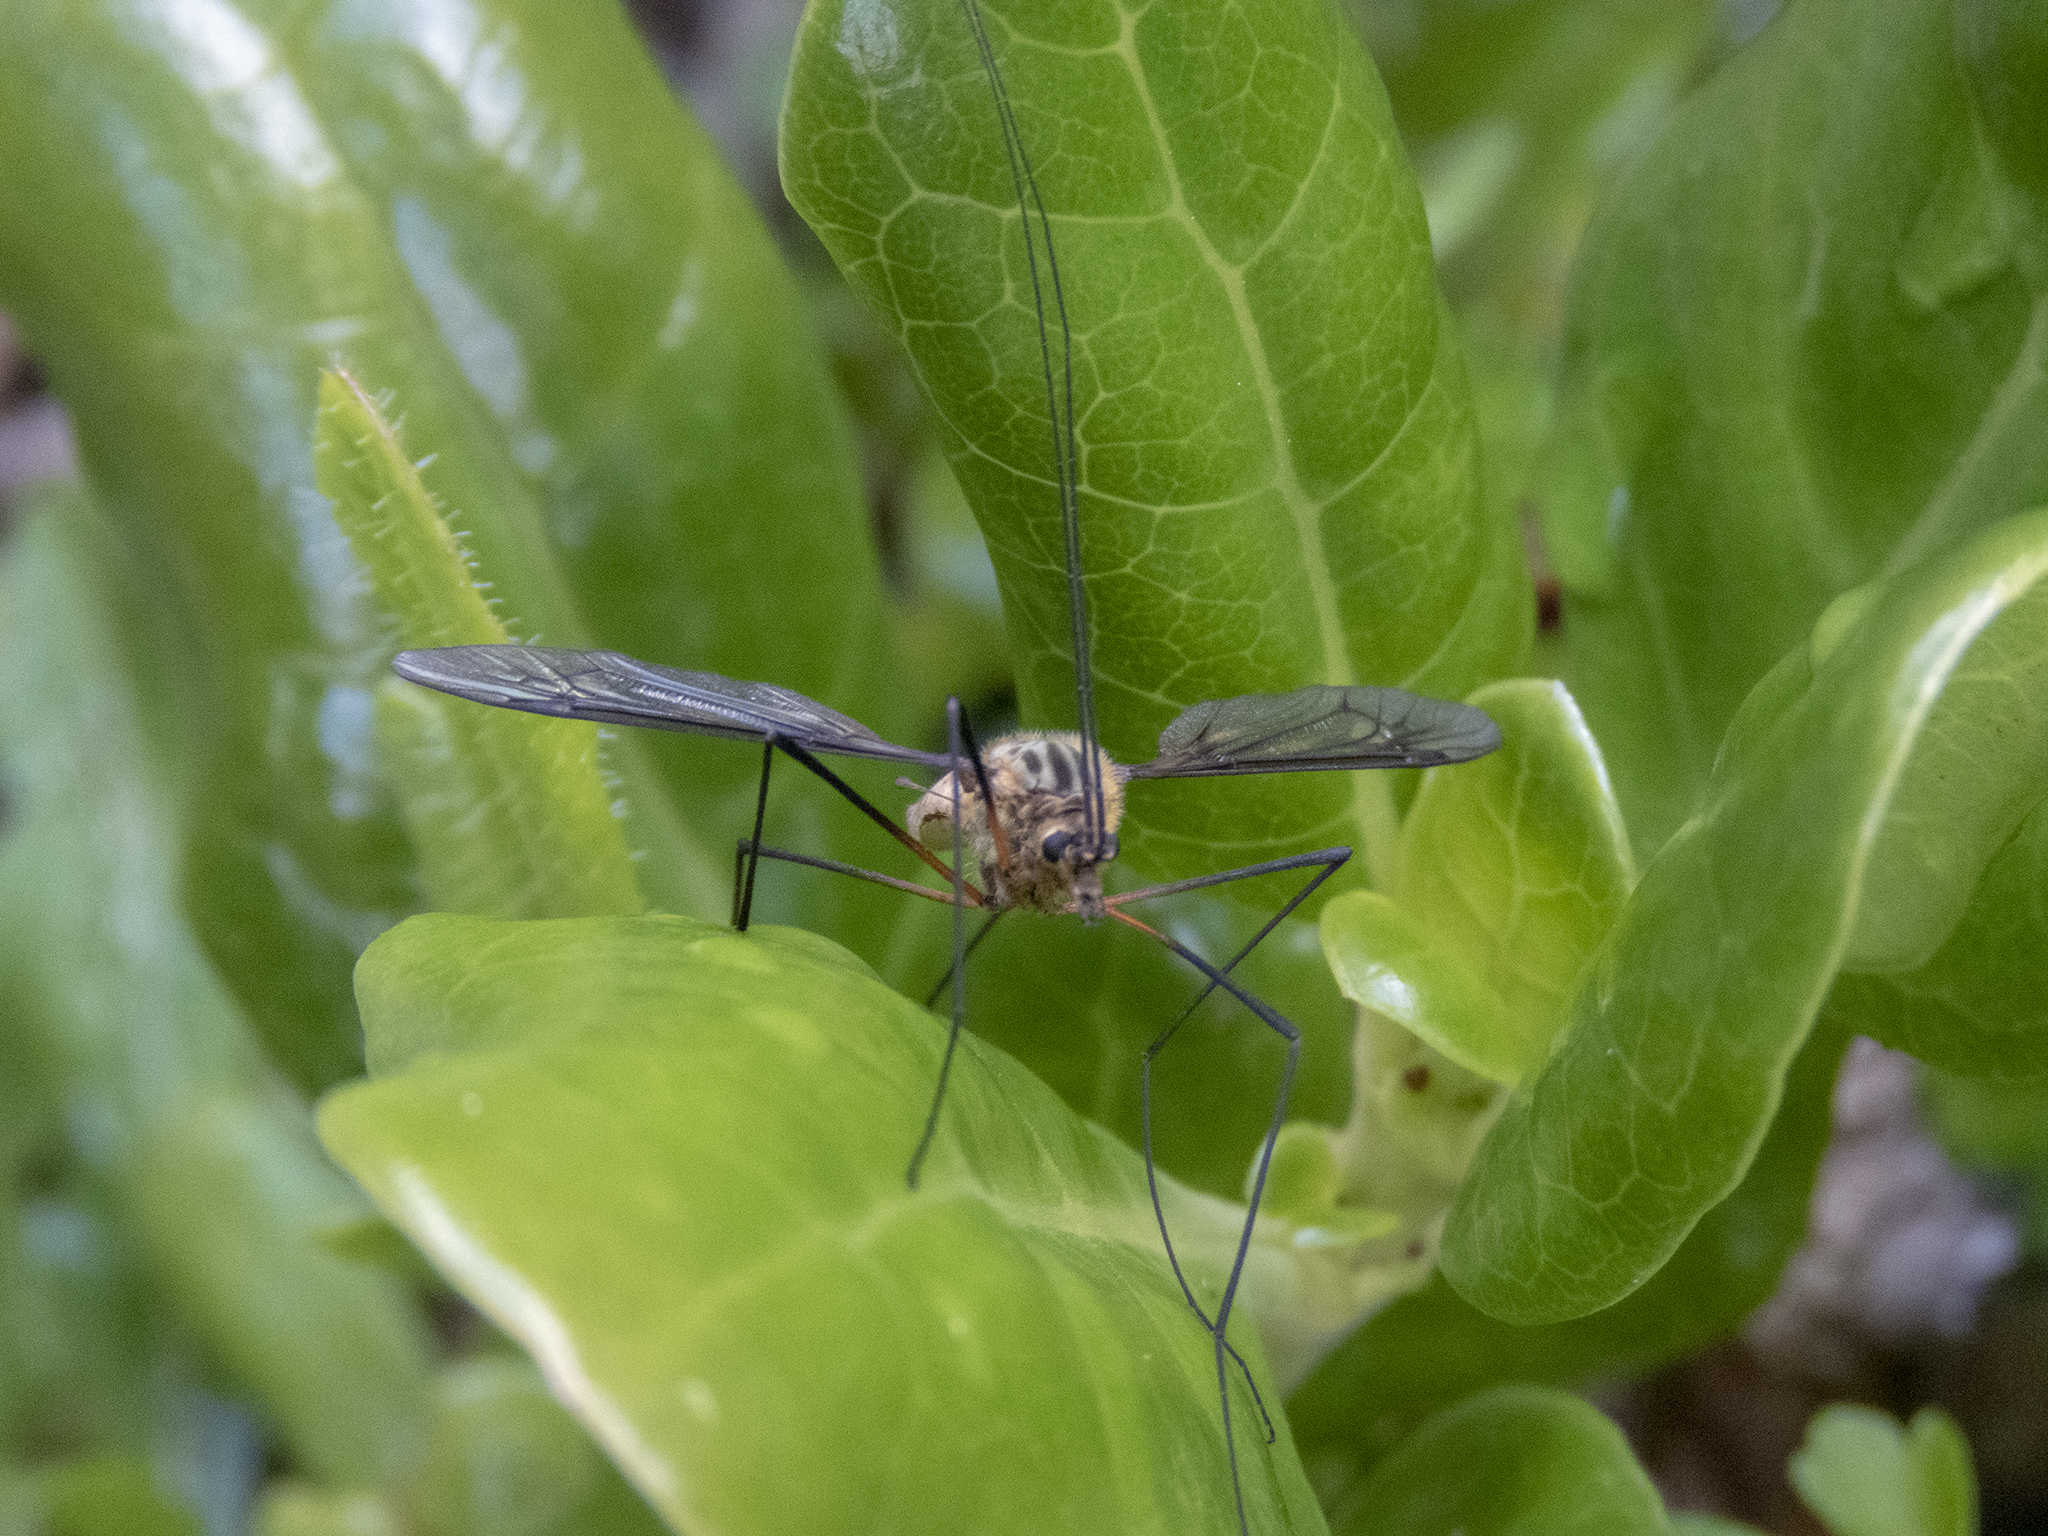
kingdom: Animalia
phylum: Arthropoda
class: Insecta
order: Diptera
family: Tipulidae
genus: Leptotarsus
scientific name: Leptotarsus vulpinus
